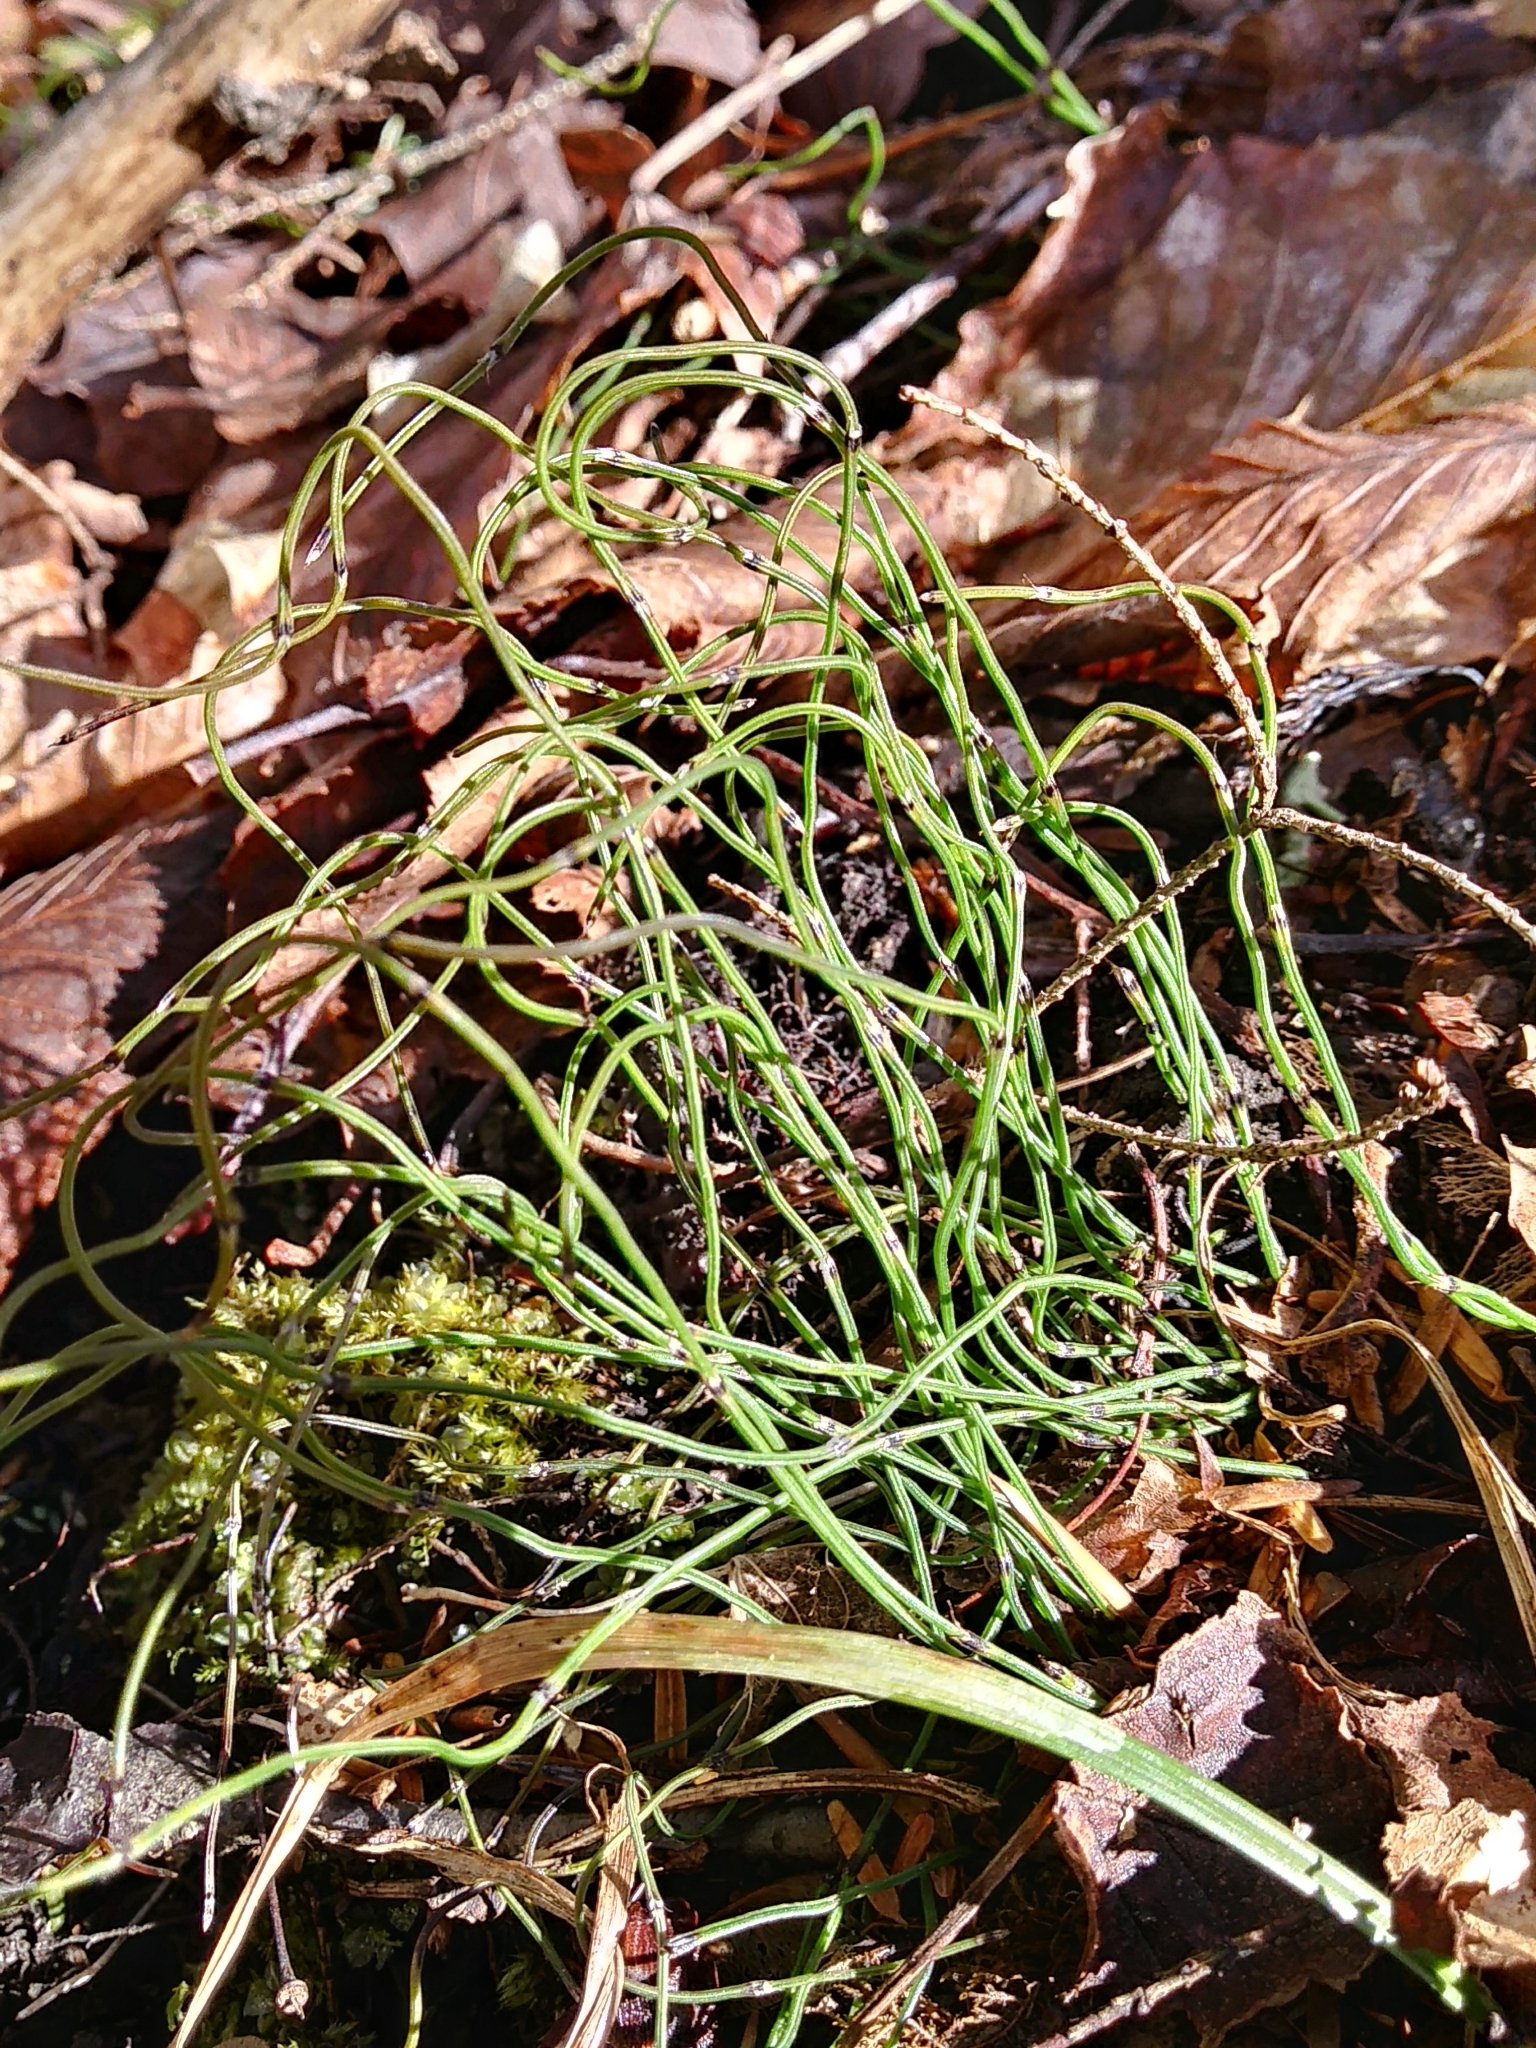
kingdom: Plantae
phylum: Tracheophyta
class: Polypodiopsida
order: Equisetales
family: Equisetaceae
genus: Equisetum
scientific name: Equisetum scirpoides
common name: Delicate horsetail
